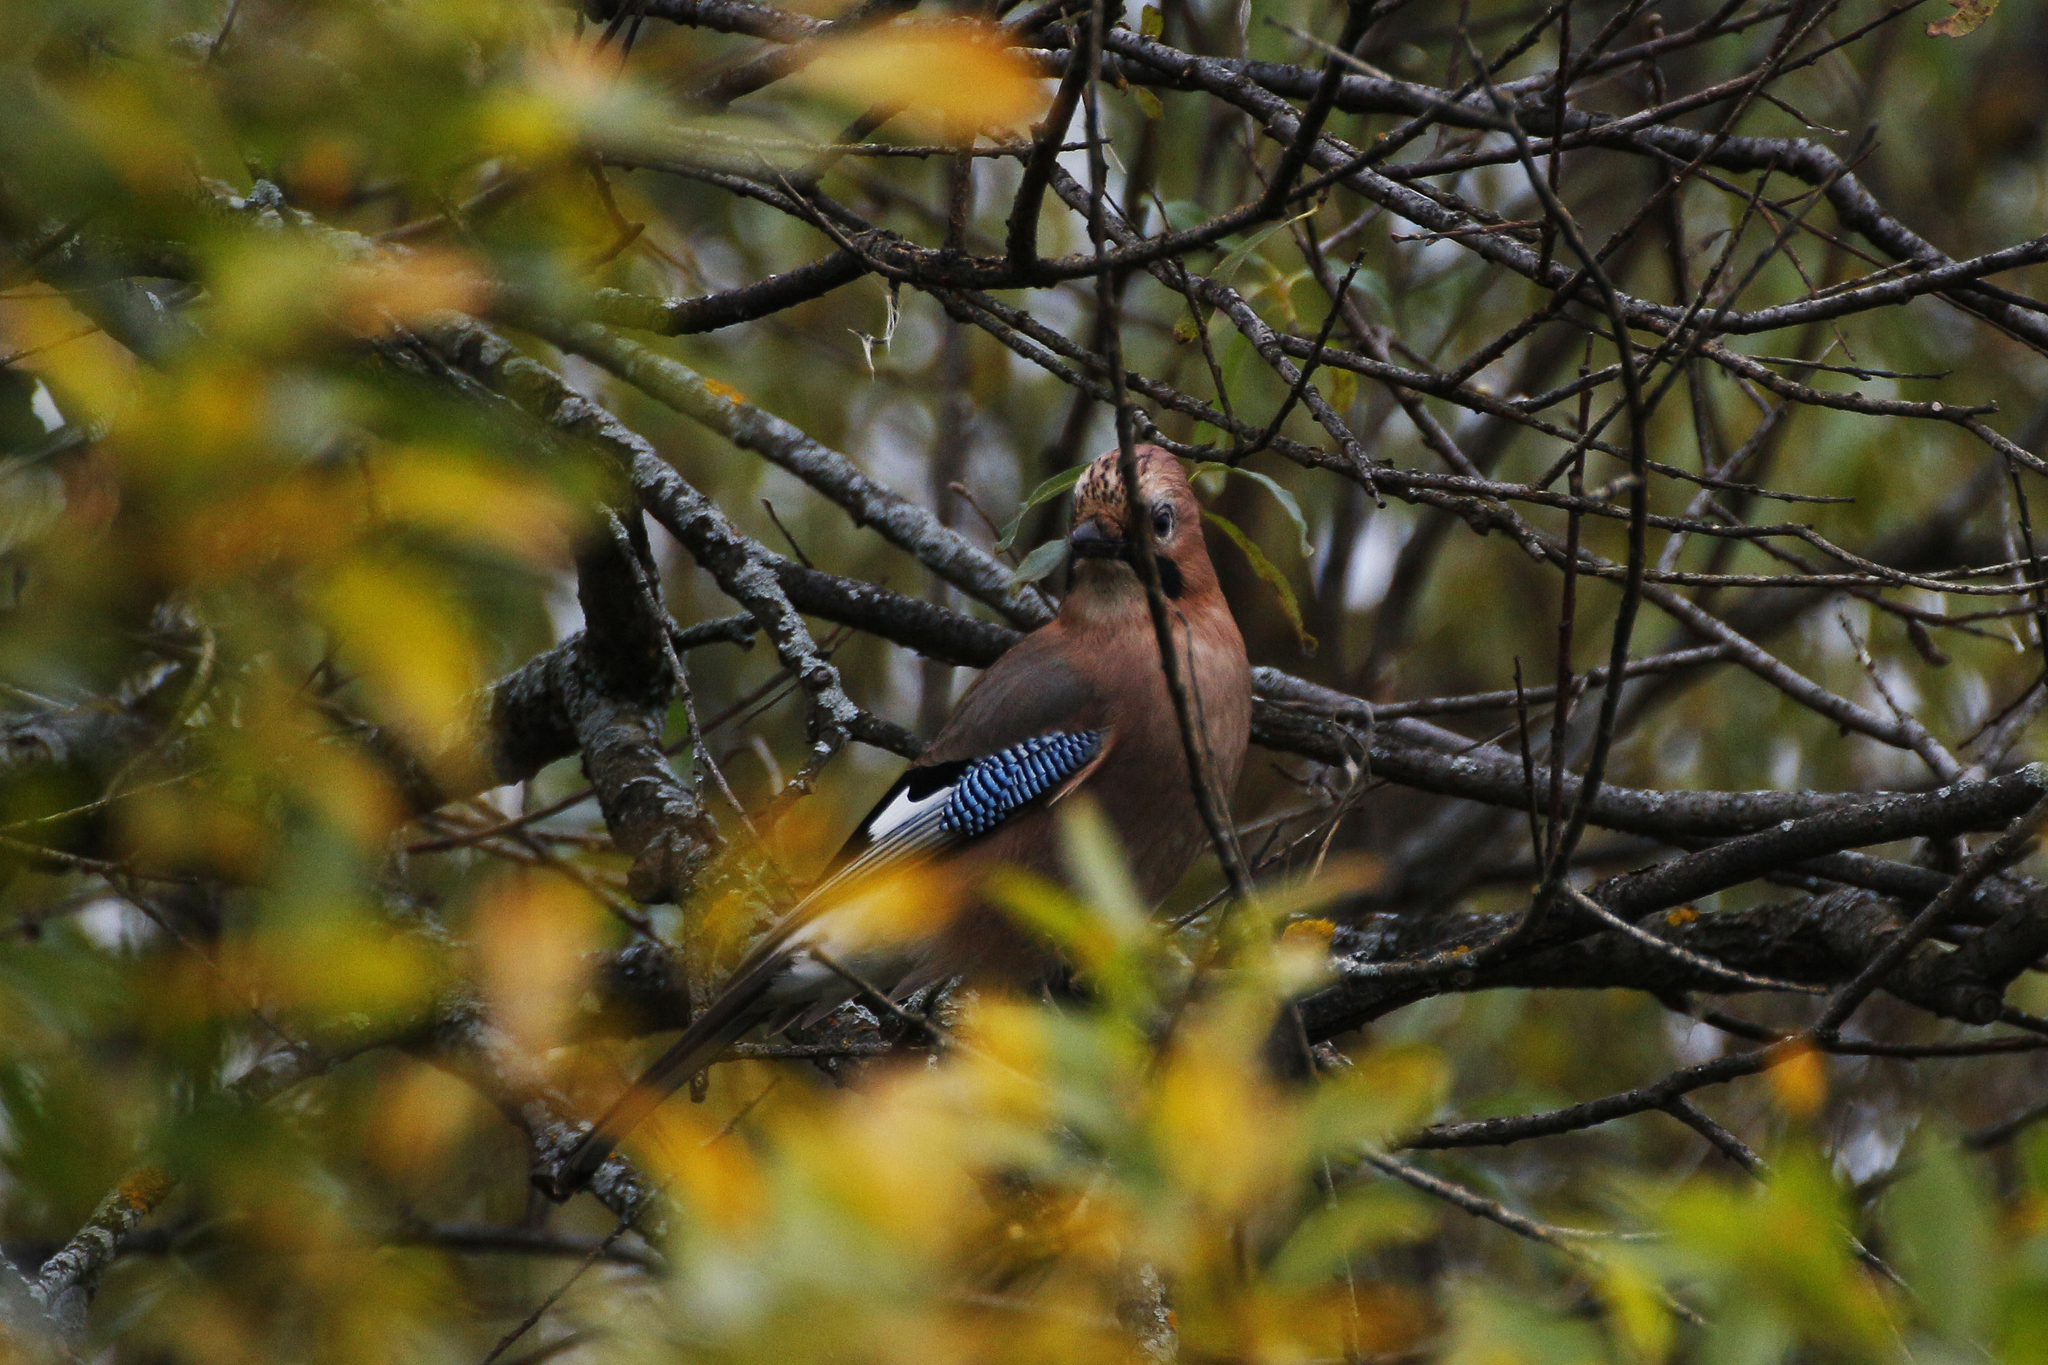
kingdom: Animalia
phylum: Chordata
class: Aves
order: Passeriformes
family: Corvidae
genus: Garrulus
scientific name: Garrulus glandarius
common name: Eurasian jay
